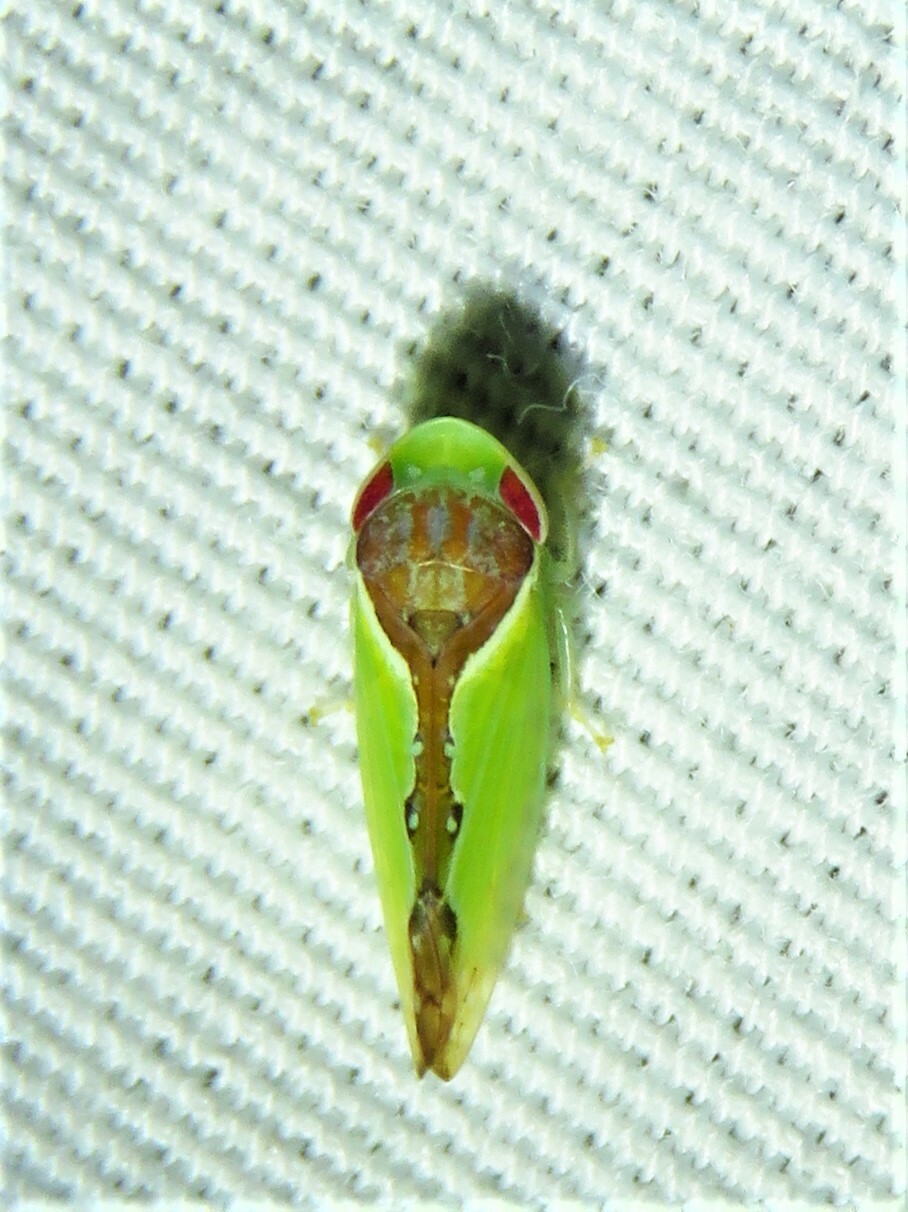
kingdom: Animalia
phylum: Arthropoda
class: Insecta
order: Hemiptera
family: Cicadellidae
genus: Omansobara ing
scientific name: Omansobara ing Omansobara palliolata
